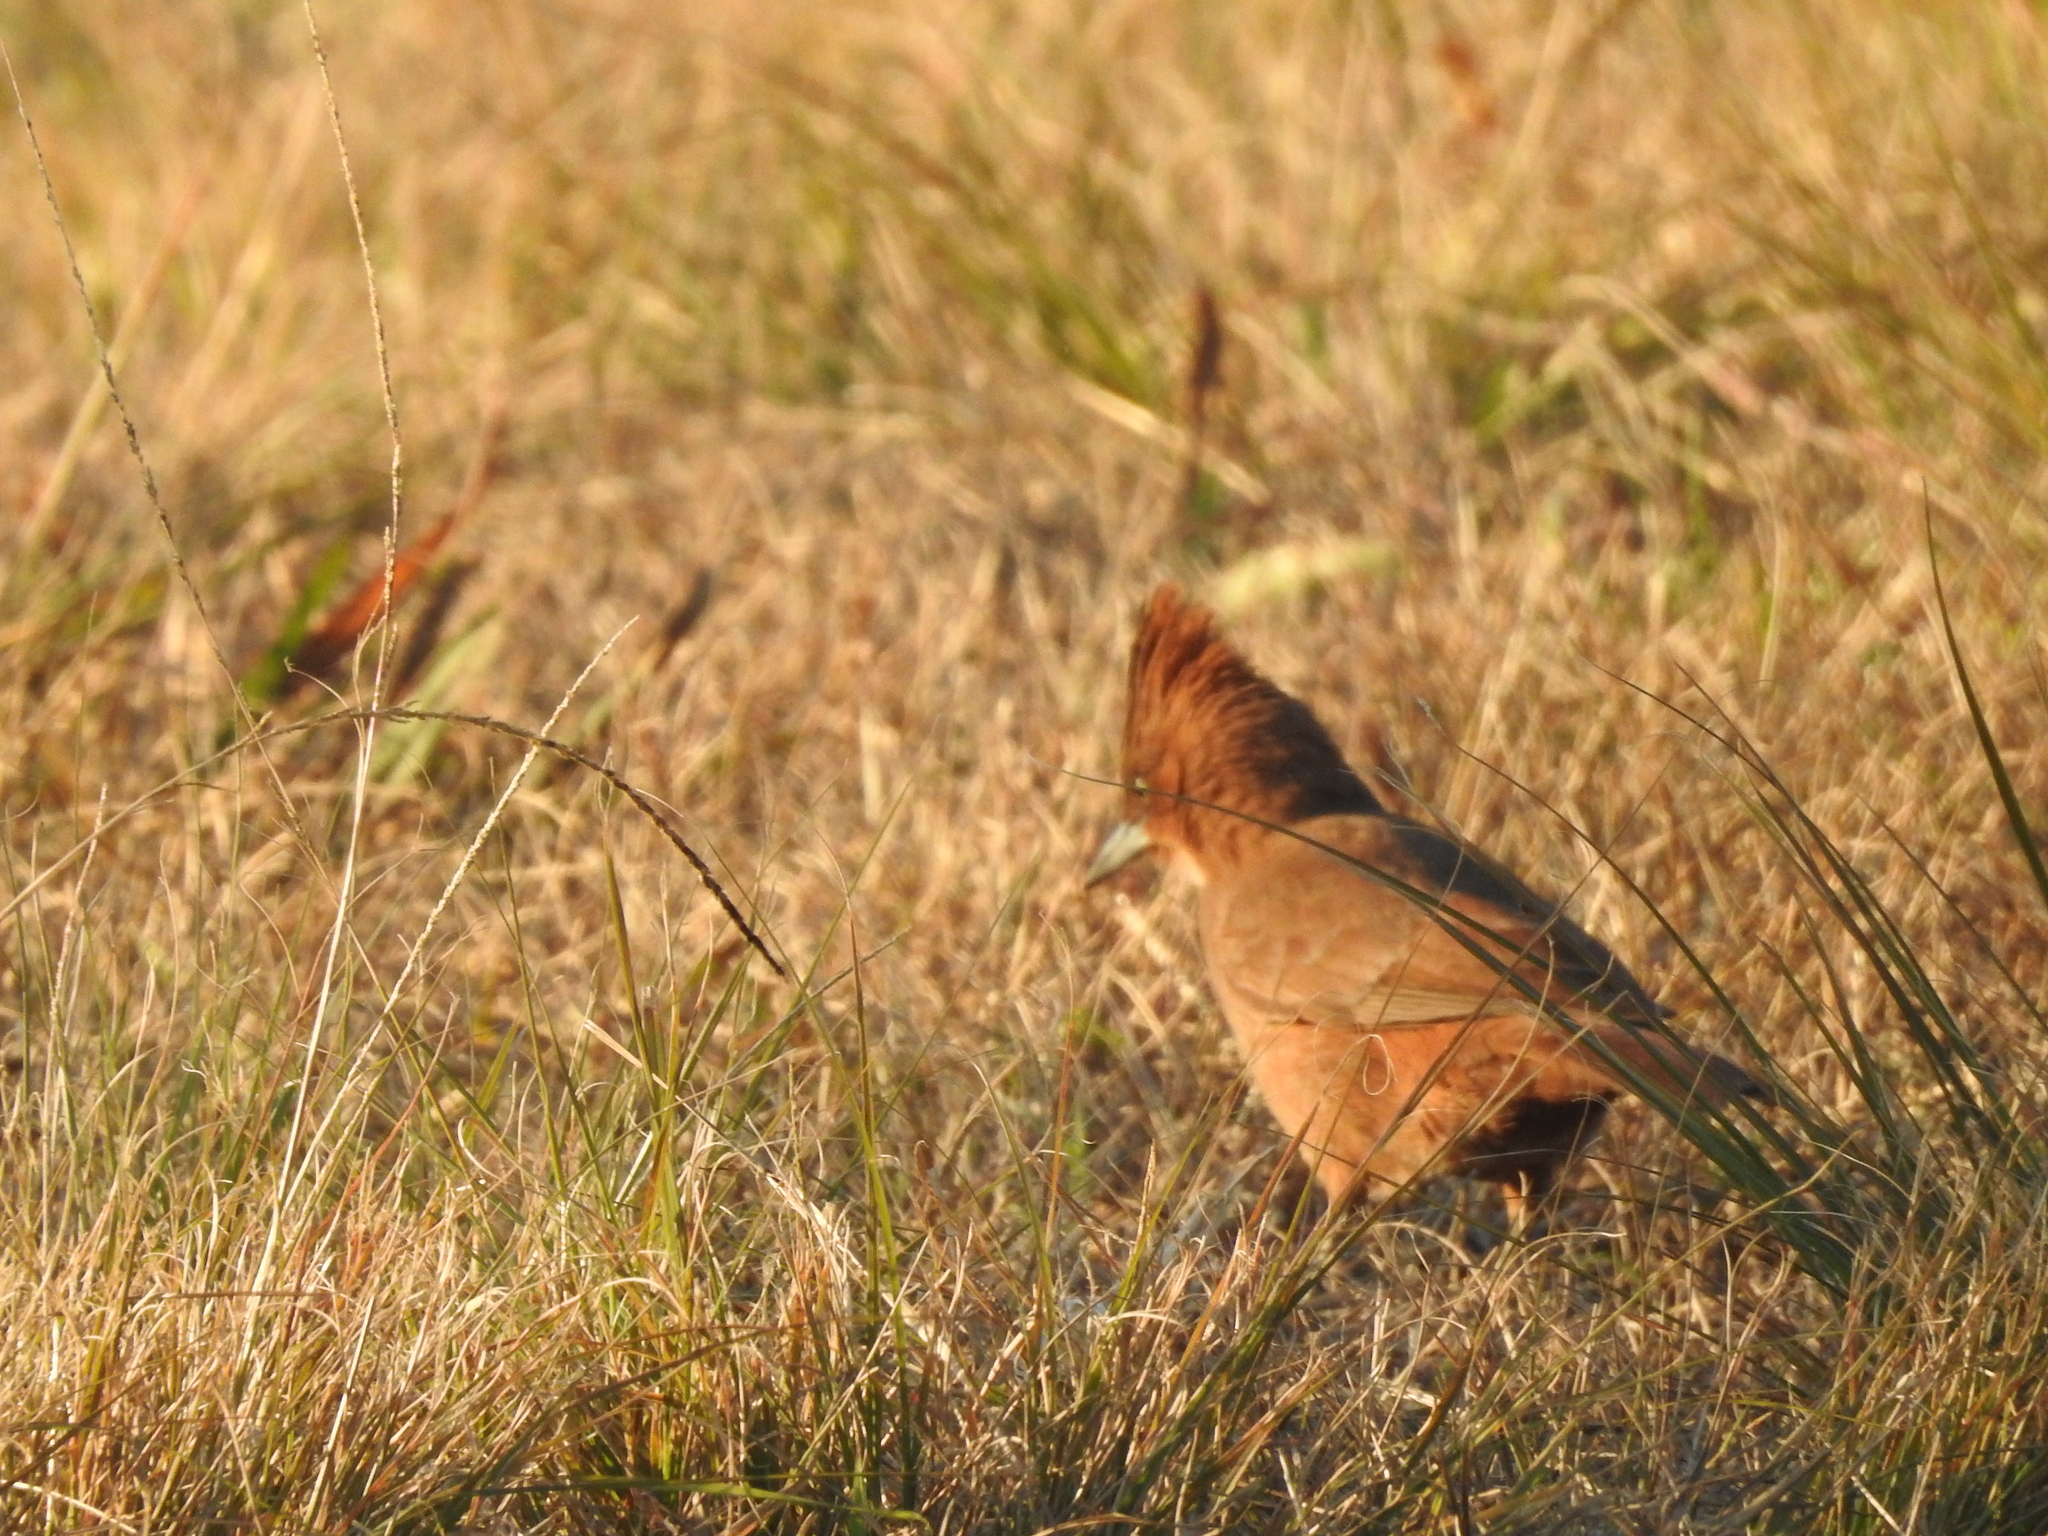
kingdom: Animalia
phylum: Chordata
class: Aves
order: Passeriformes
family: Furnariidae
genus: Pseudoseisura
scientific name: Pseudoseisura lophotes
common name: Brown cacholote
